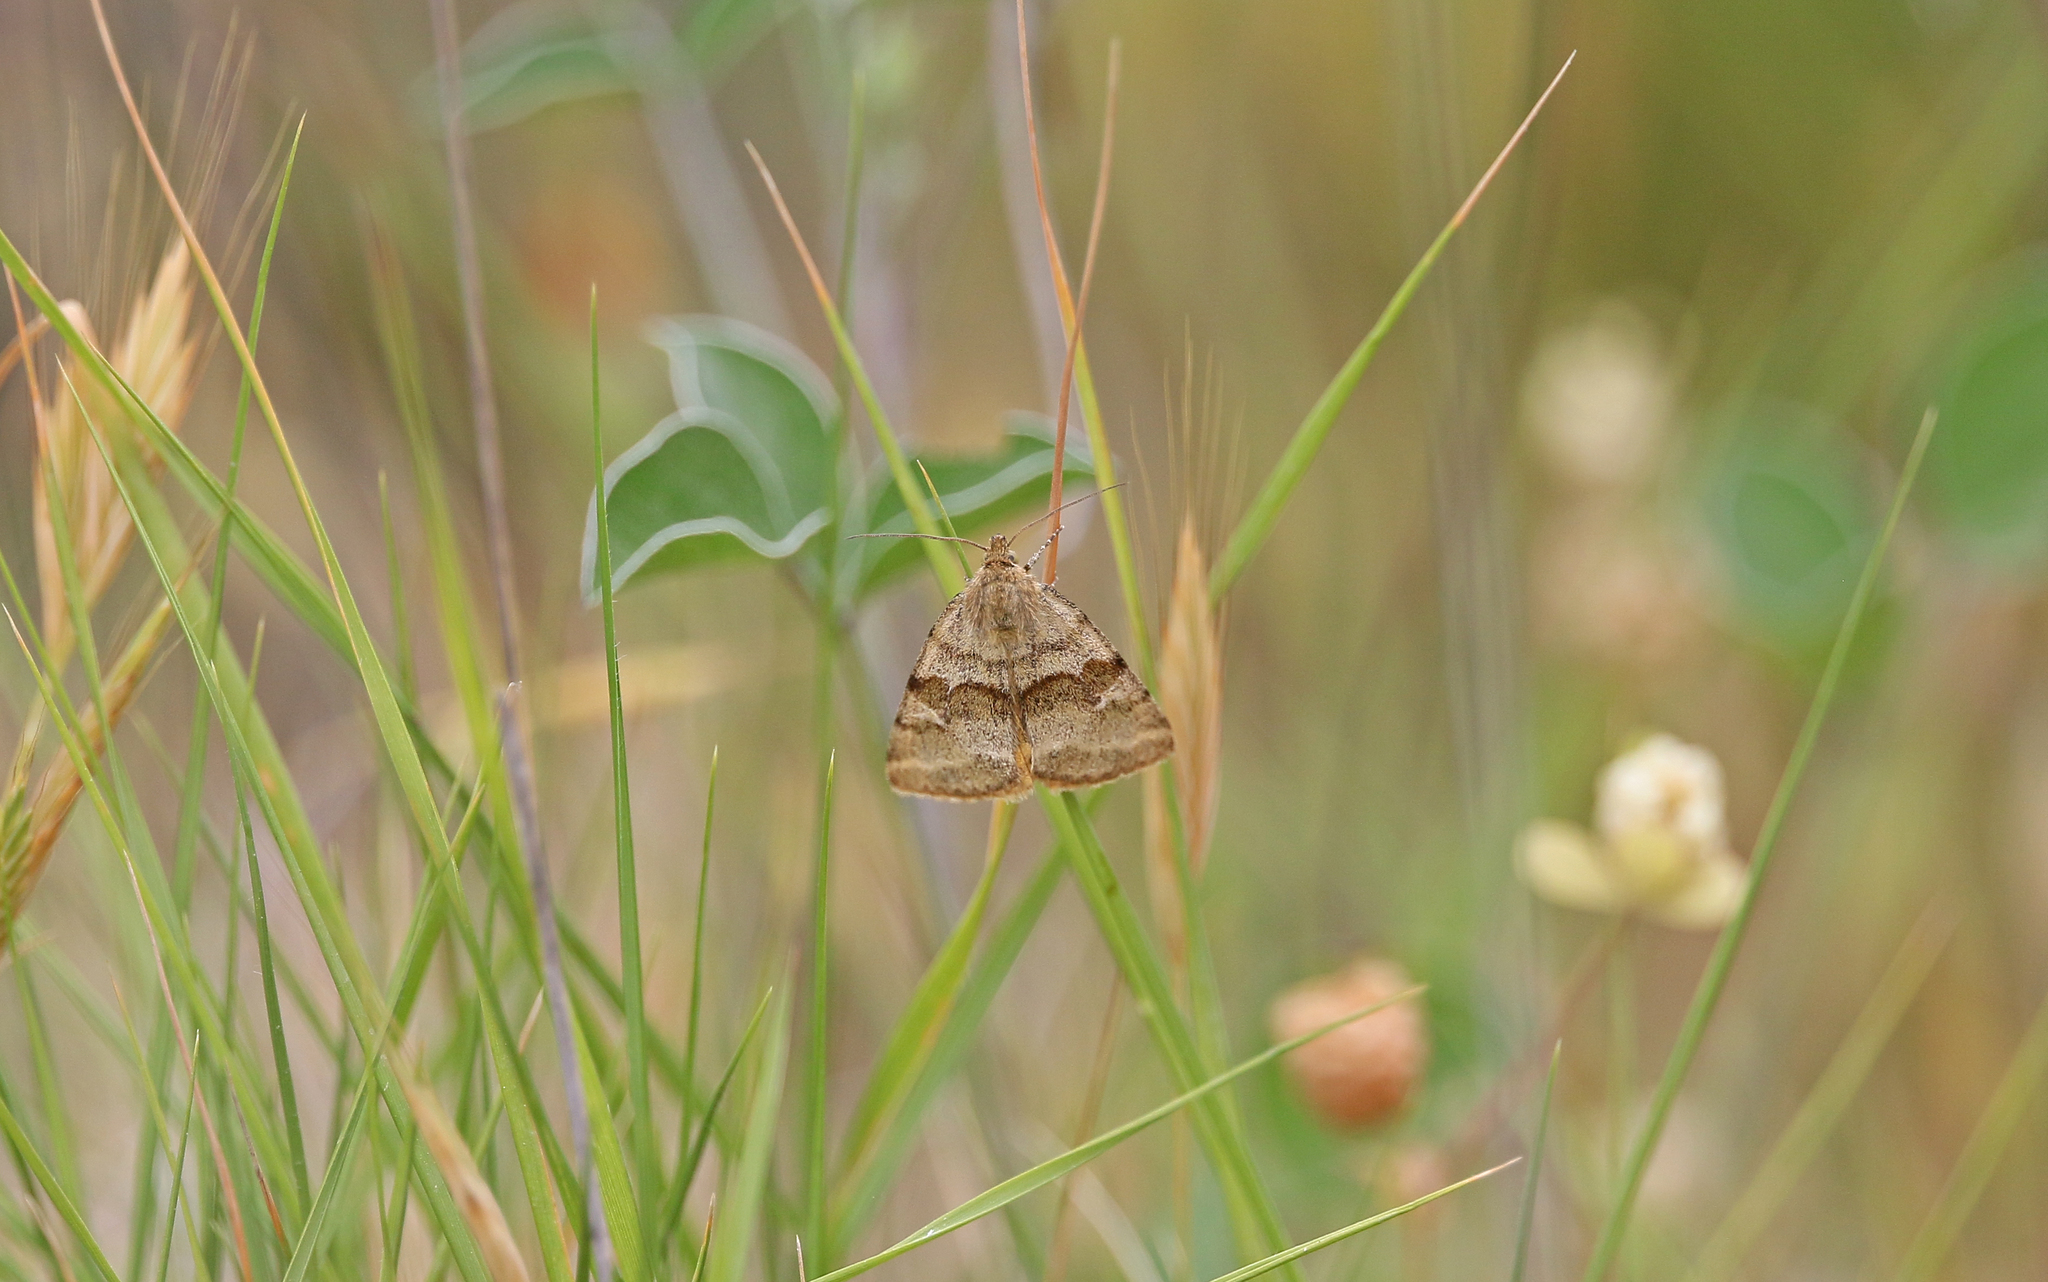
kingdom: Animalia
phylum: Arthropoda
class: Insecta
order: Lepidoptera
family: Noctuidae
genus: Synthymia
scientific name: Synthymia fixa
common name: Goldwing
